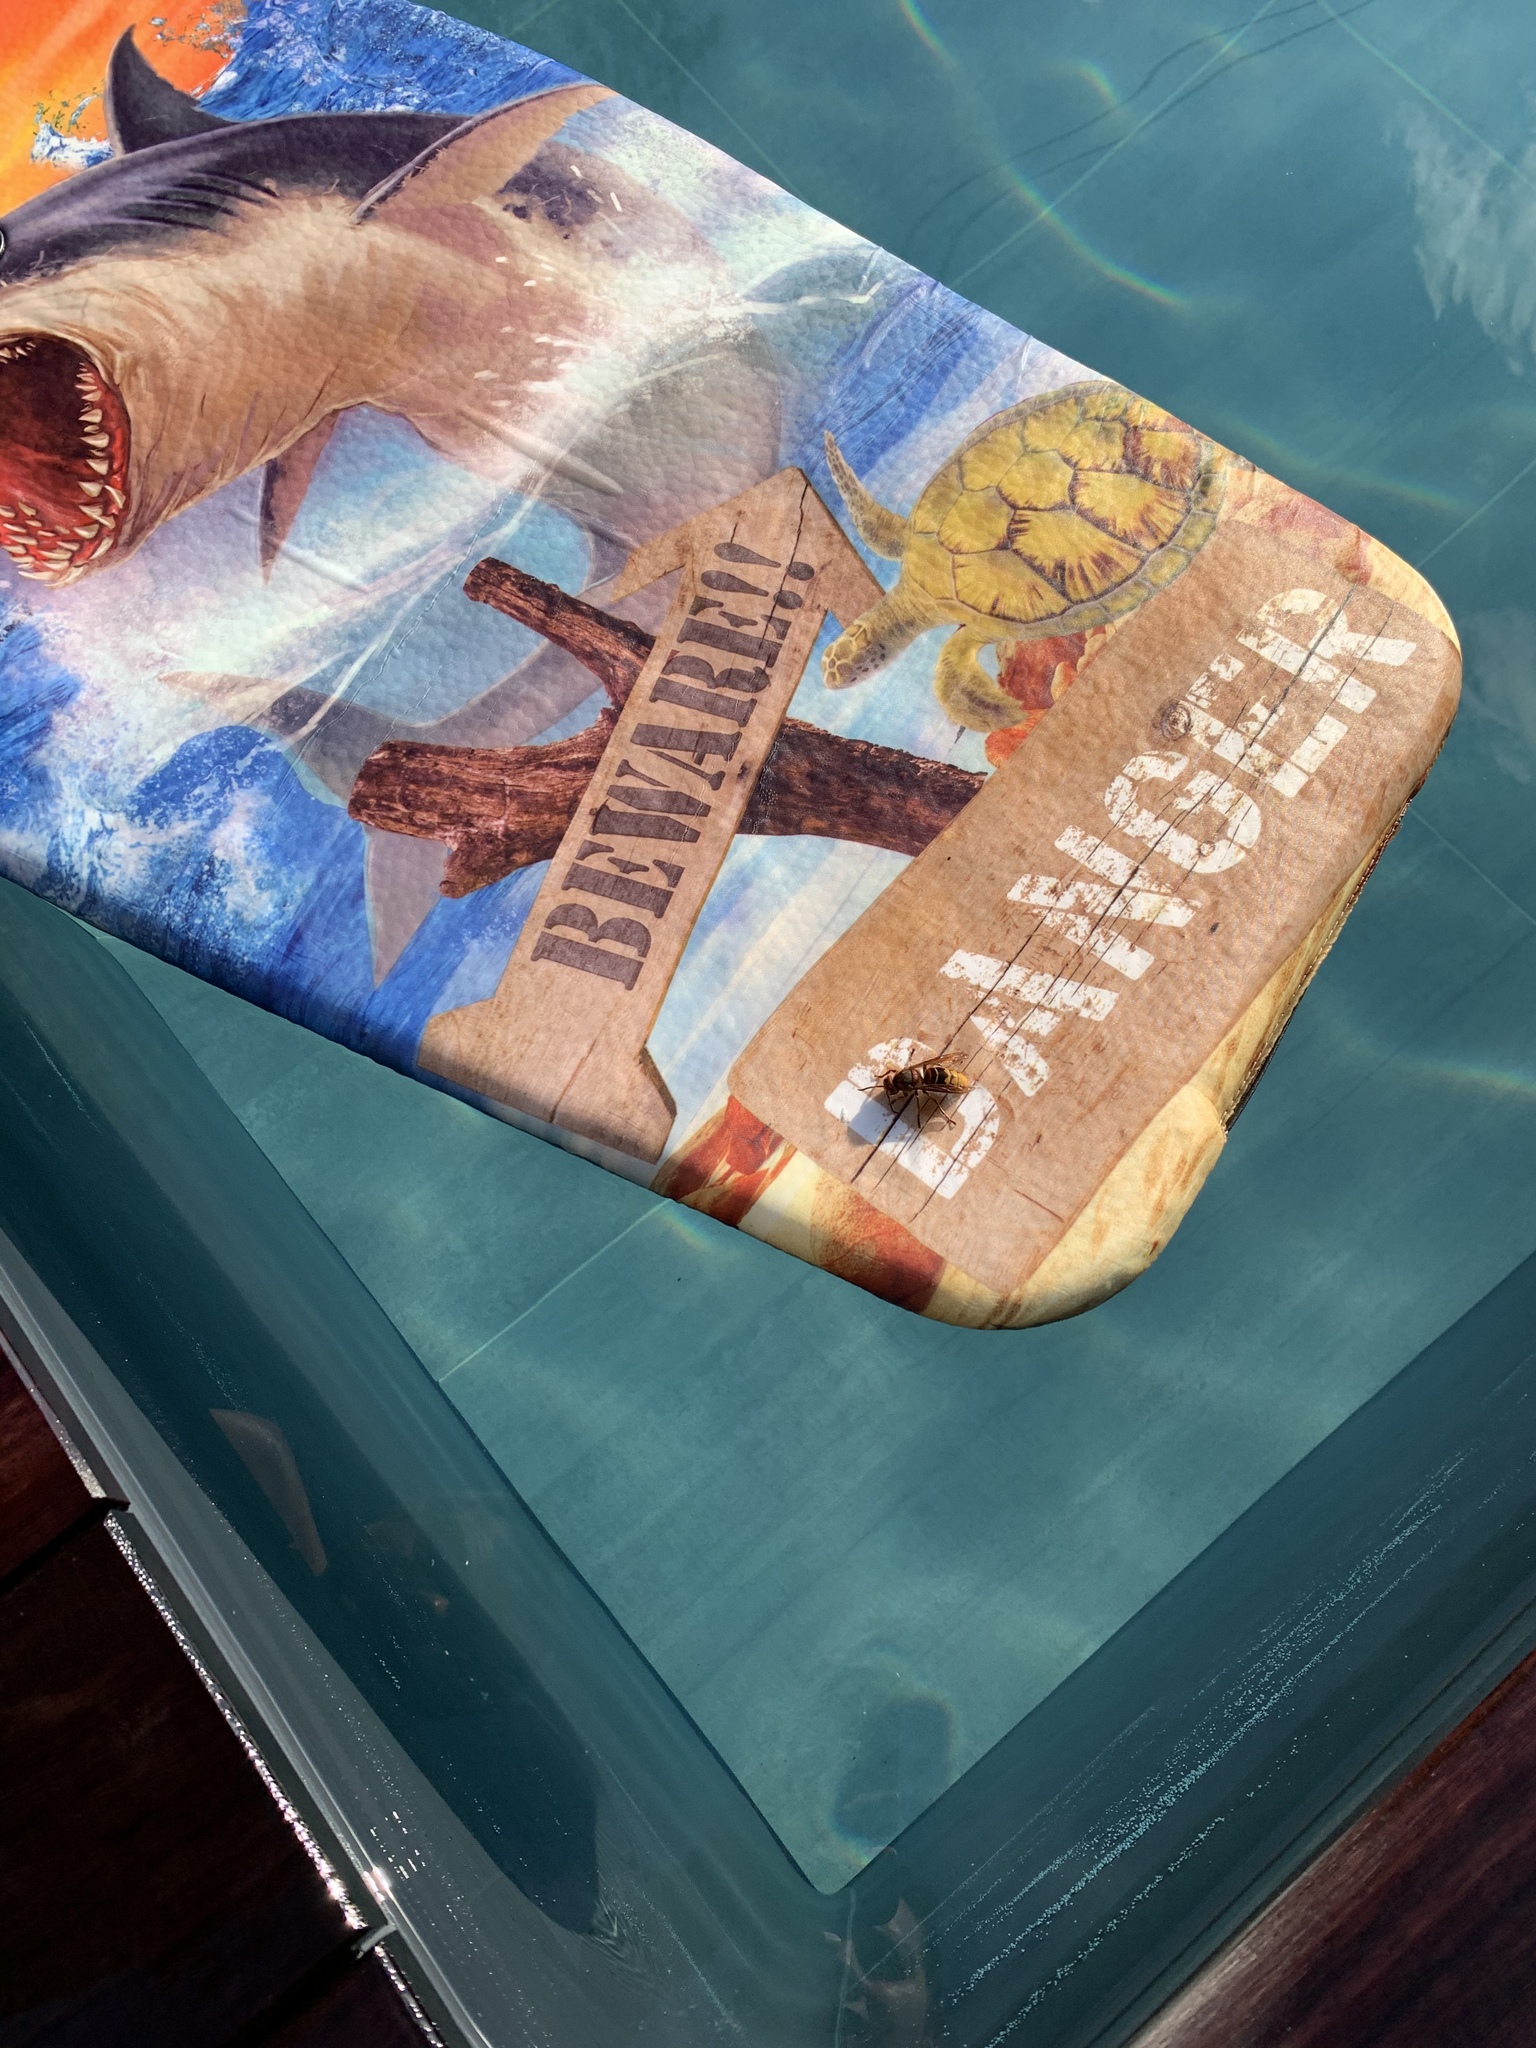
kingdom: Animalia
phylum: Arthropoda
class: Insecta
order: Hymenoptera
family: Vespidae
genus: Vespa
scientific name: Vespa crabro
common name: Hornet
